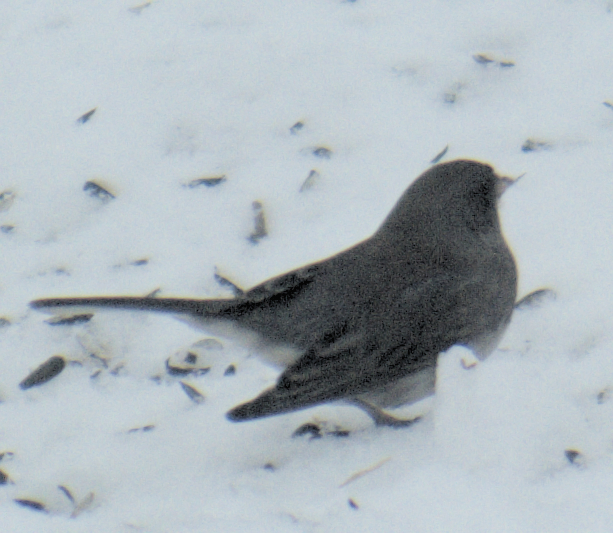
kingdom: Animalia
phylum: Chordata
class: Aves
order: Passeriformes
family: Passerellidae
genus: Junco
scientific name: Junco hyemalis
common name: Dark-eyed junco
